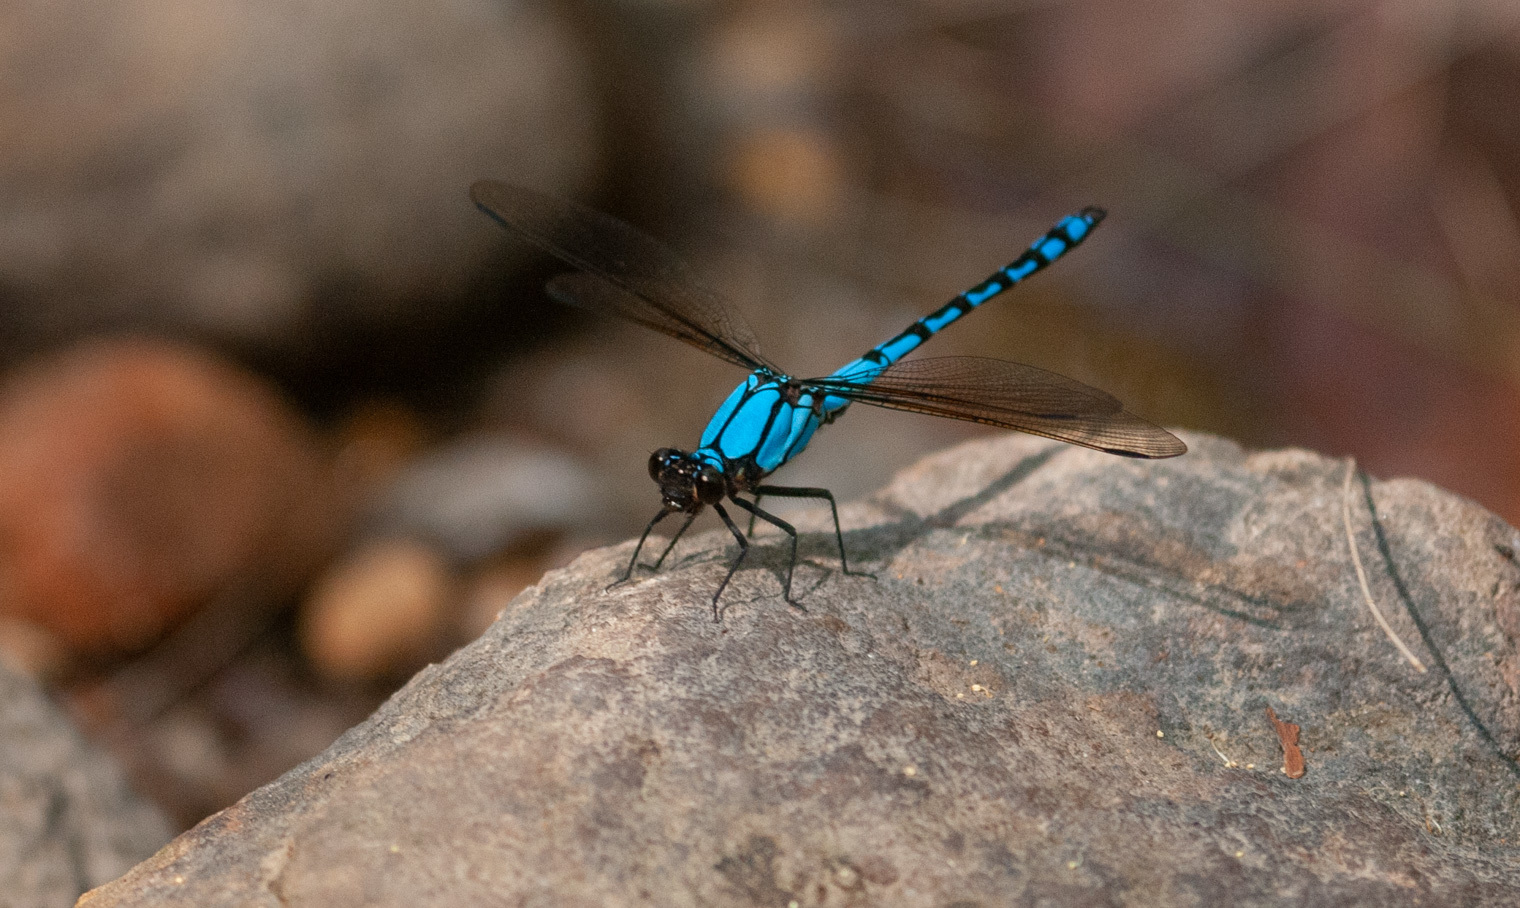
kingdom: Animalia
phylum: Arthropoda
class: Insecta
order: Odonata
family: Lestoideidae
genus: Diphlebia
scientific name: Diphlebia nymphoides
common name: Arrowhead rockmaster
